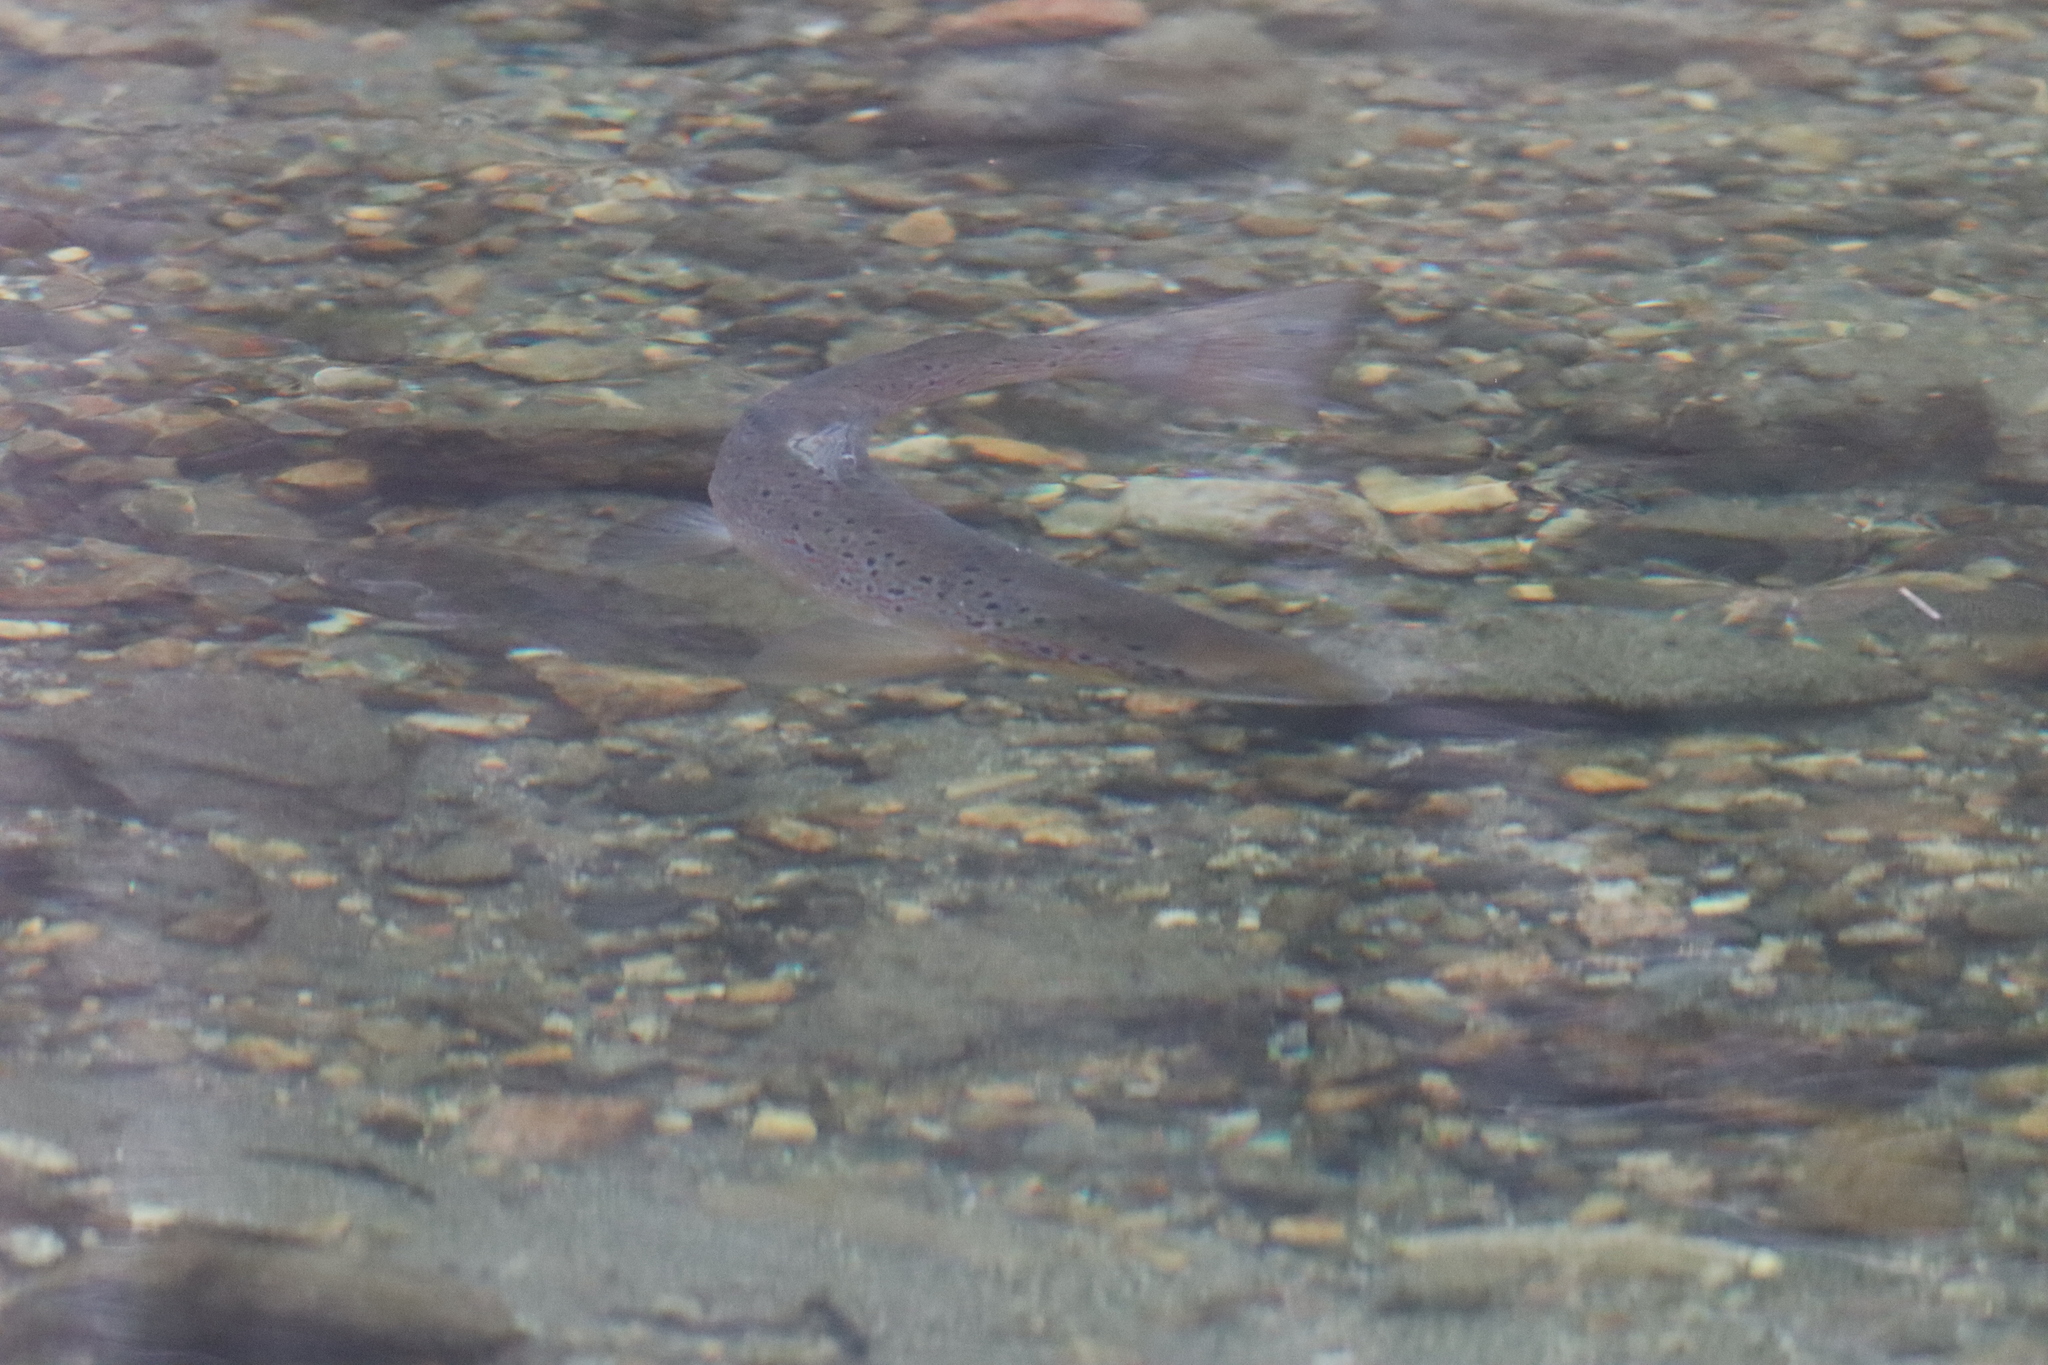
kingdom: Animalia
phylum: Chordata
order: Salmoniformes
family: Salmonidae
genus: Salmo
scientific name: Salmo trutta
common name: Brown trout
